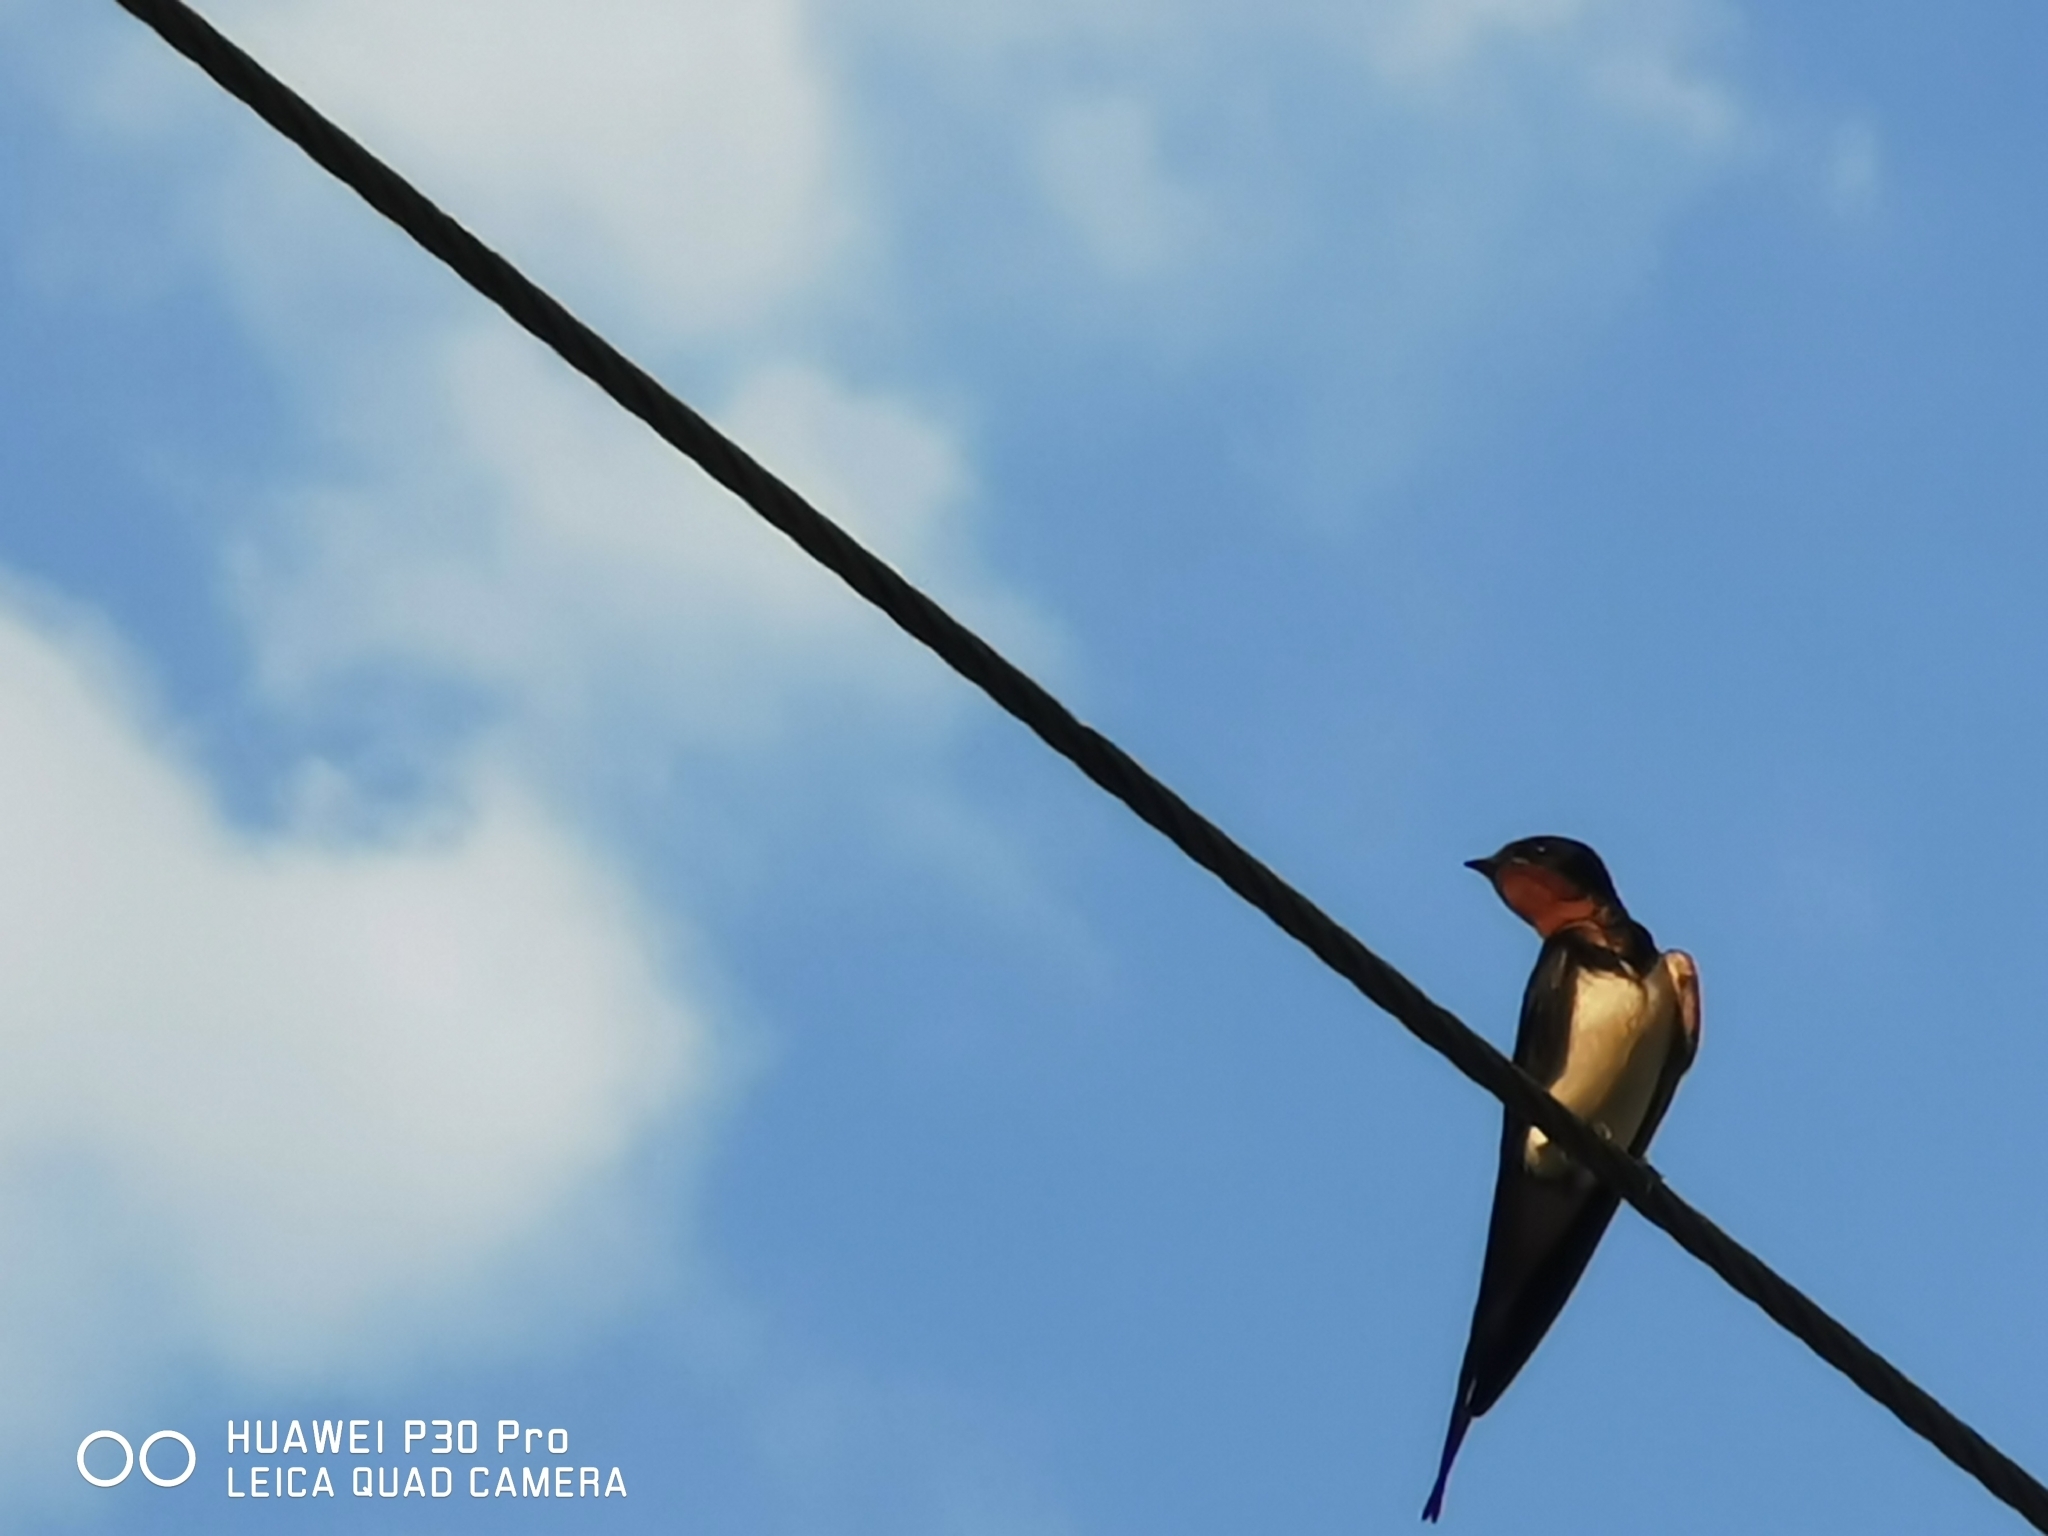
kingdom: Animalia
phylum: Chordata
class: Aves
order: Passeriformes
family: Hirundinidae
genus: Hirundo
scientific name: Hirundo rustica
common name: Barn swallow
